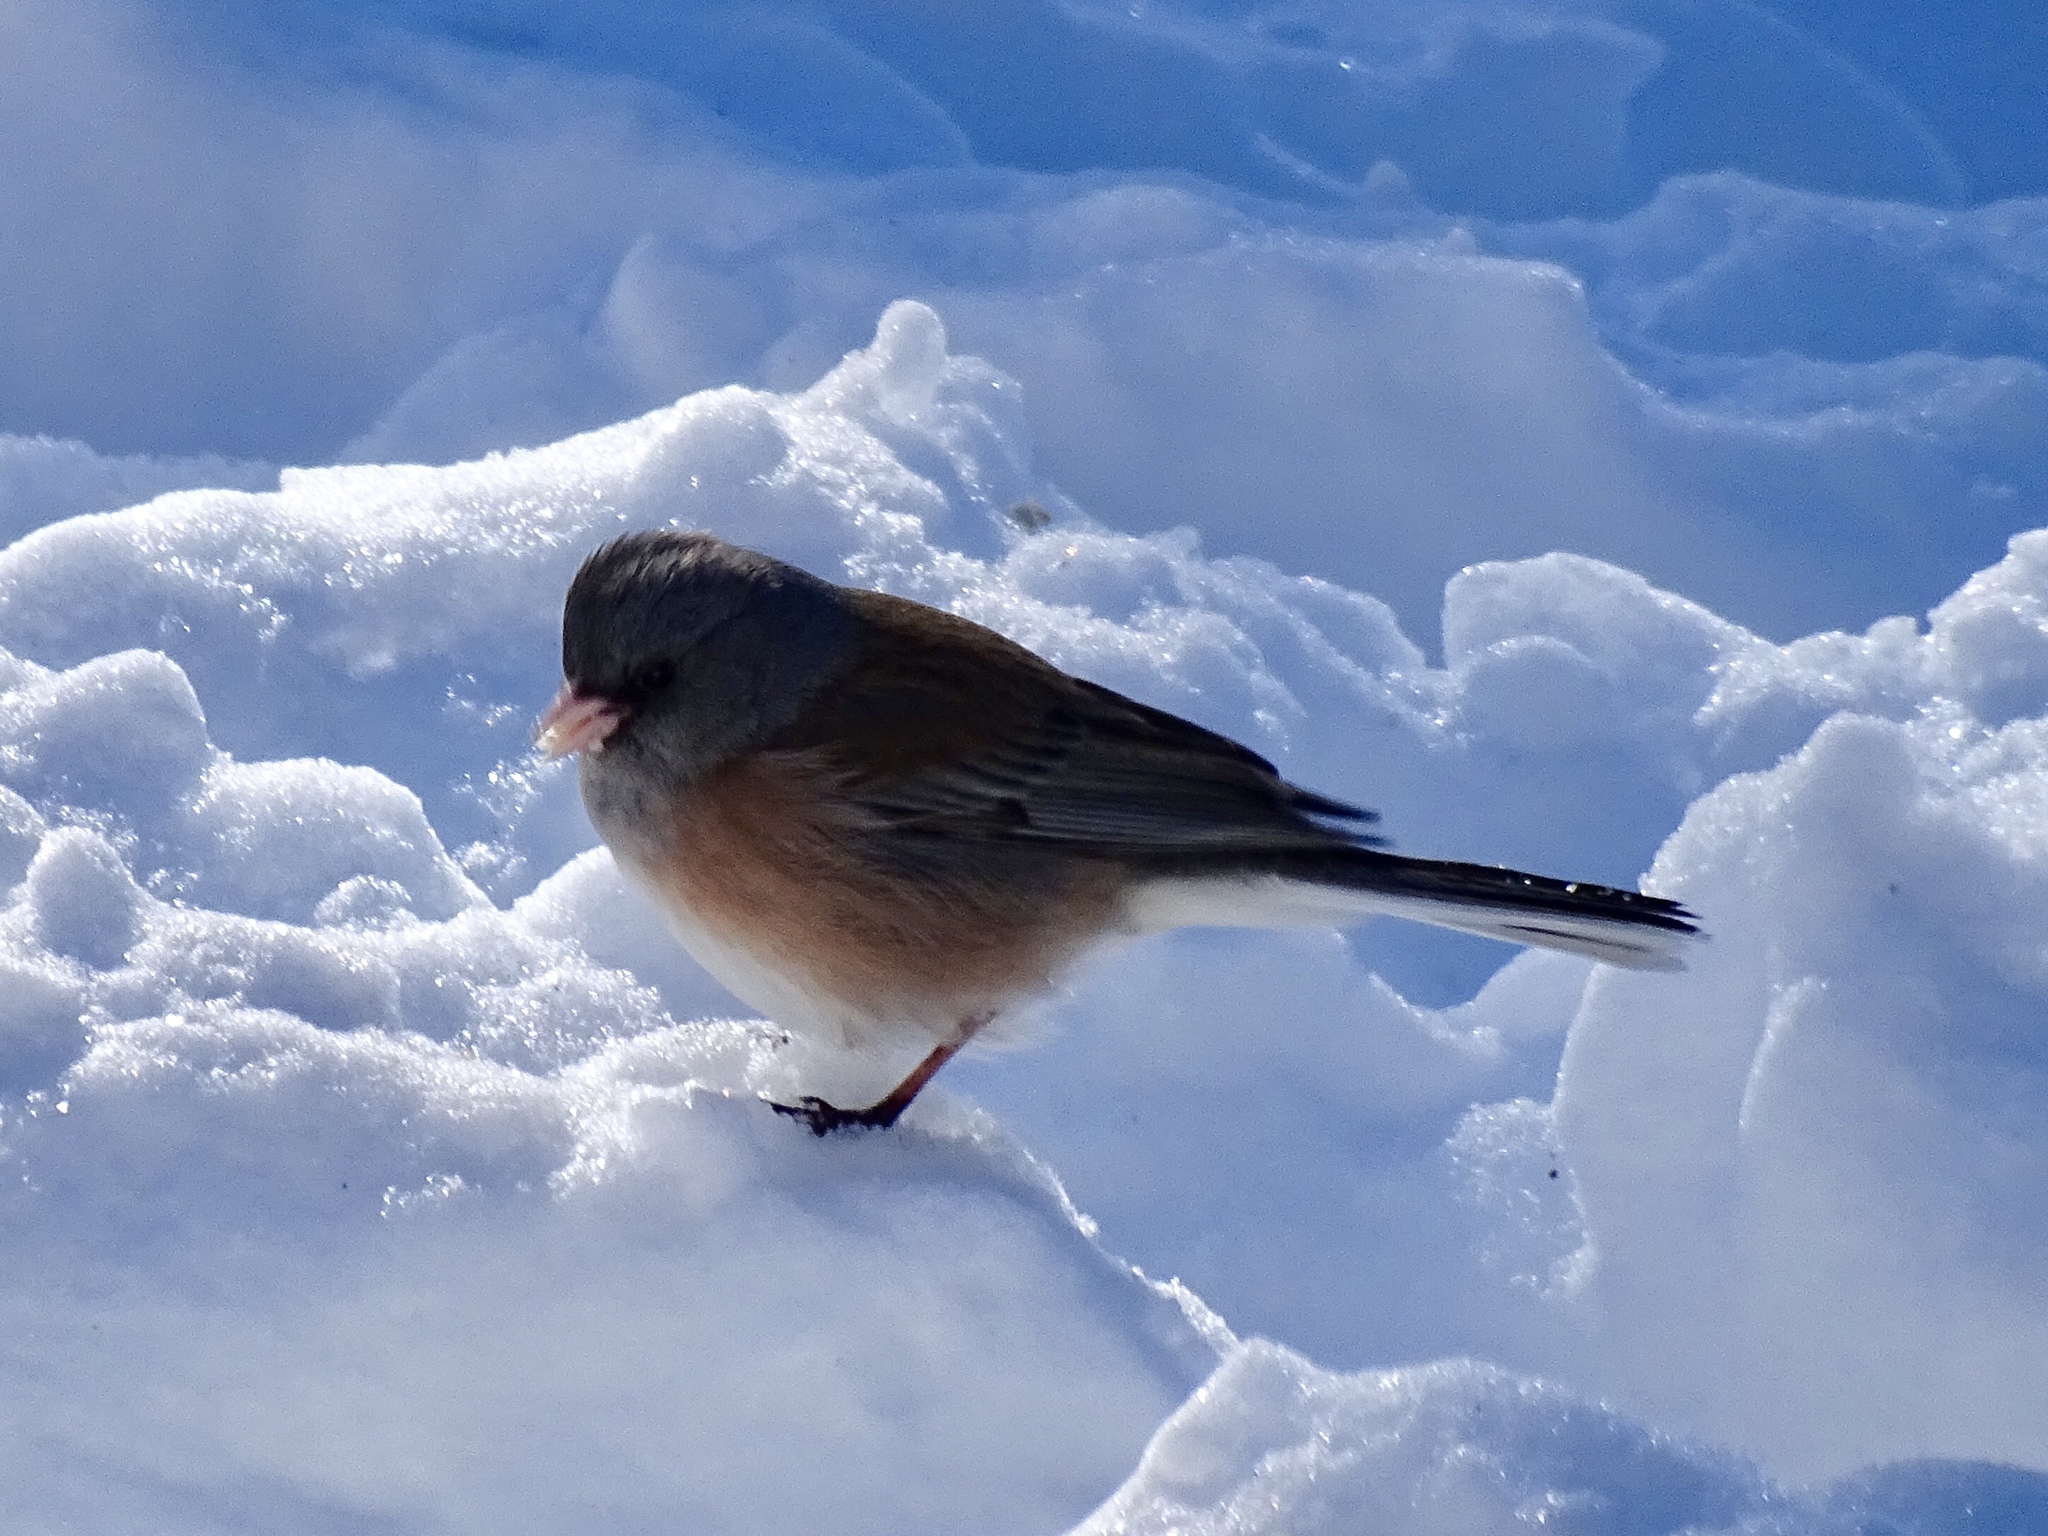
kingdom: Animalia
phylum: Chordata
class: Aves
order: Passeriformes
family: Passerellidae
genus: Junco
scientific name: Junco hyemalis
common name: Dark-eyed junco
